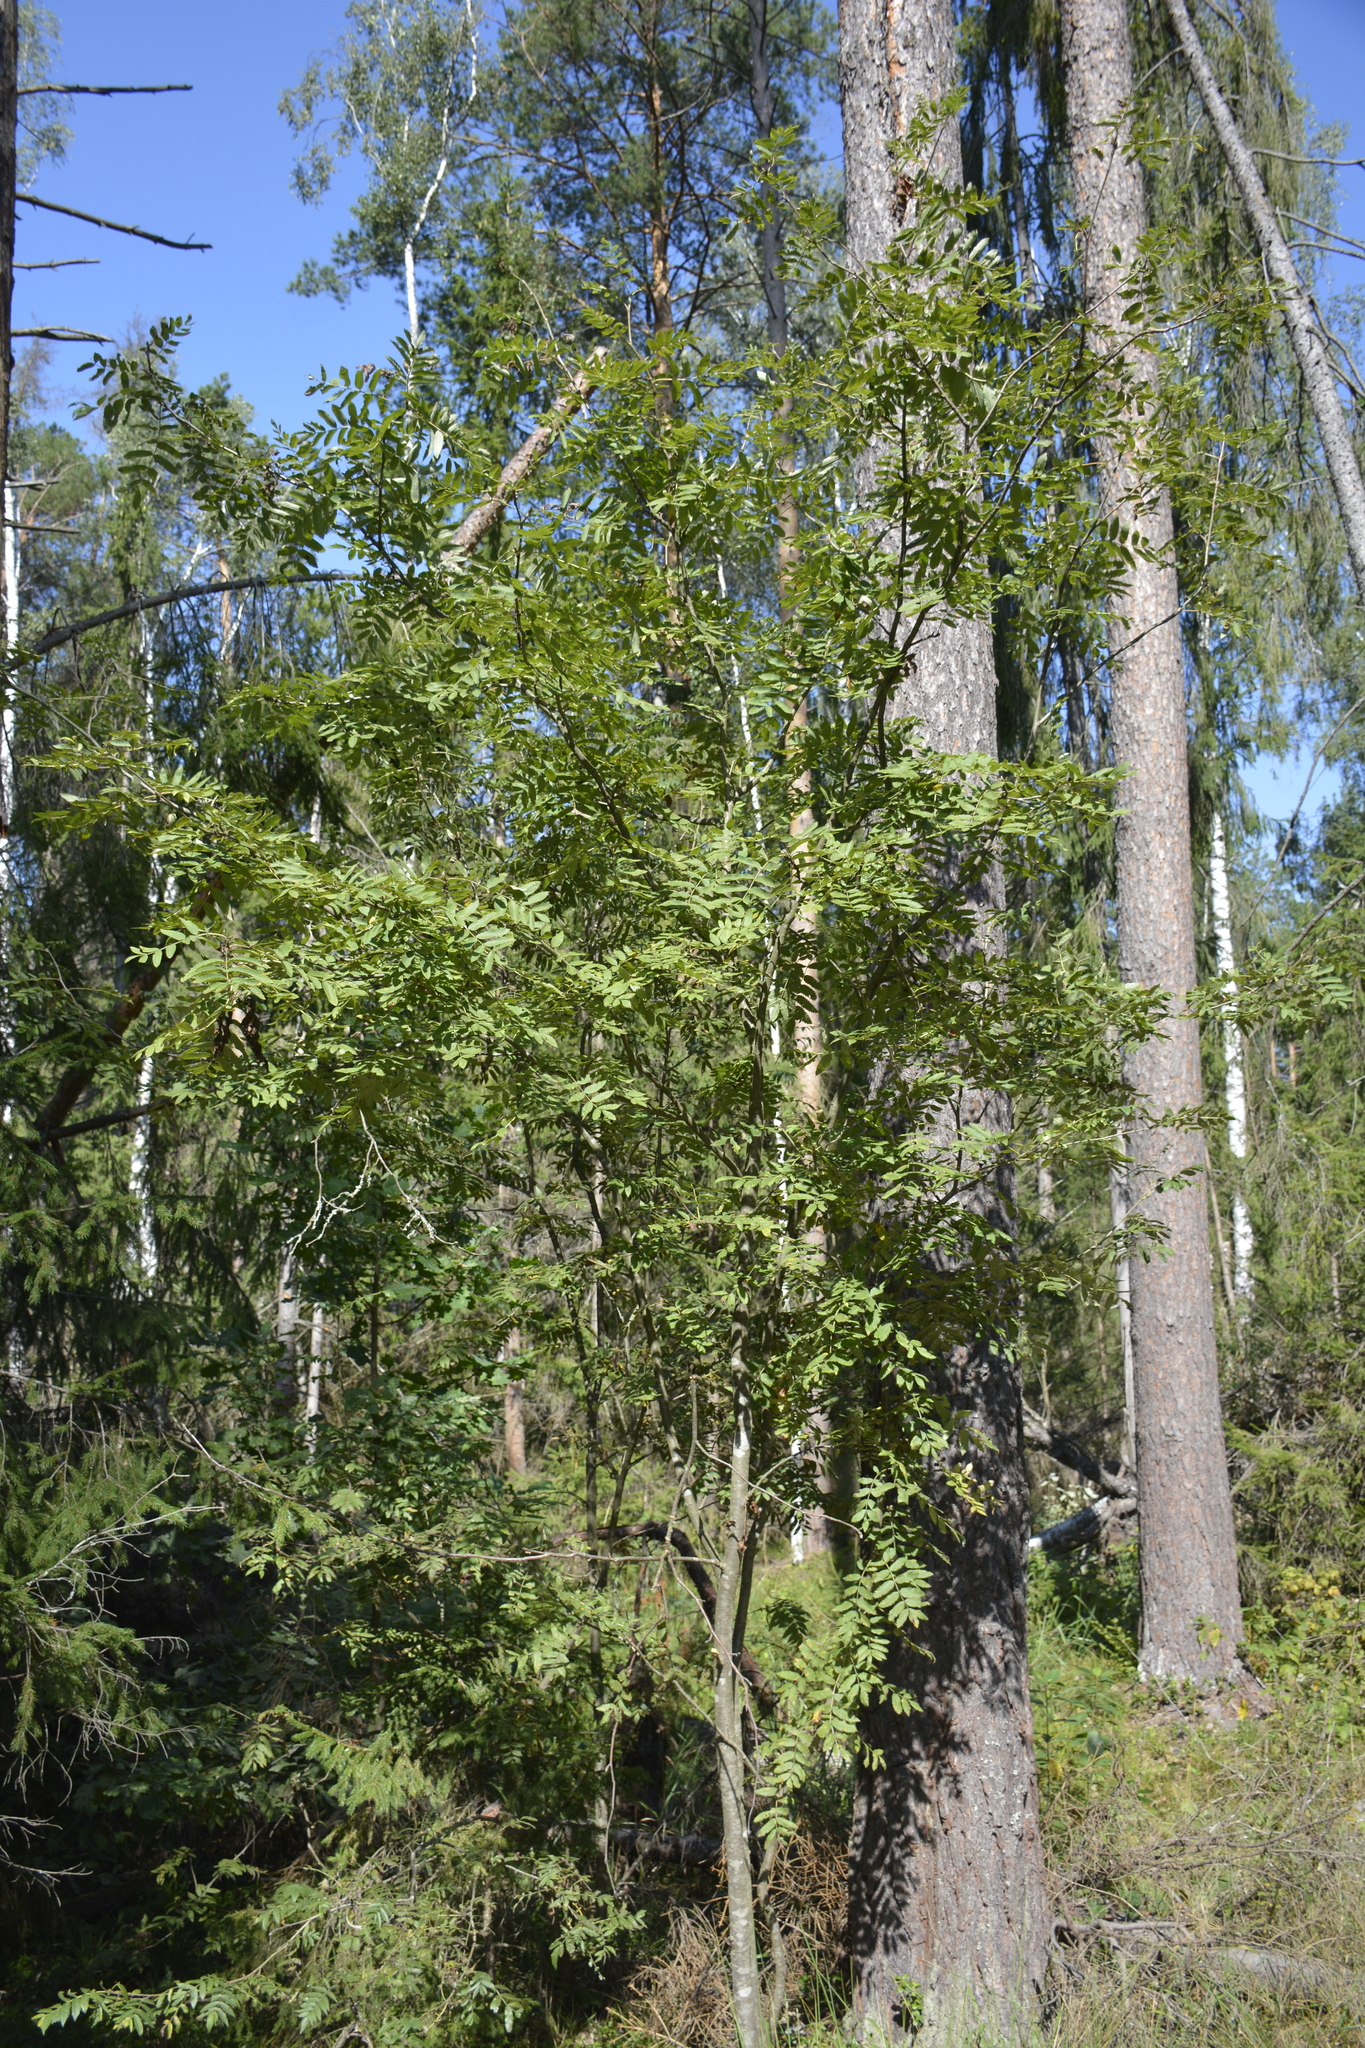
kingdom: Plantae
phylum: Tracheophyta
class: Magnoliopsida
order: Rosales
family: Rosaceae
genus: Sorbus
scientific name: Sorbus aucuparia
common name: Rowan
